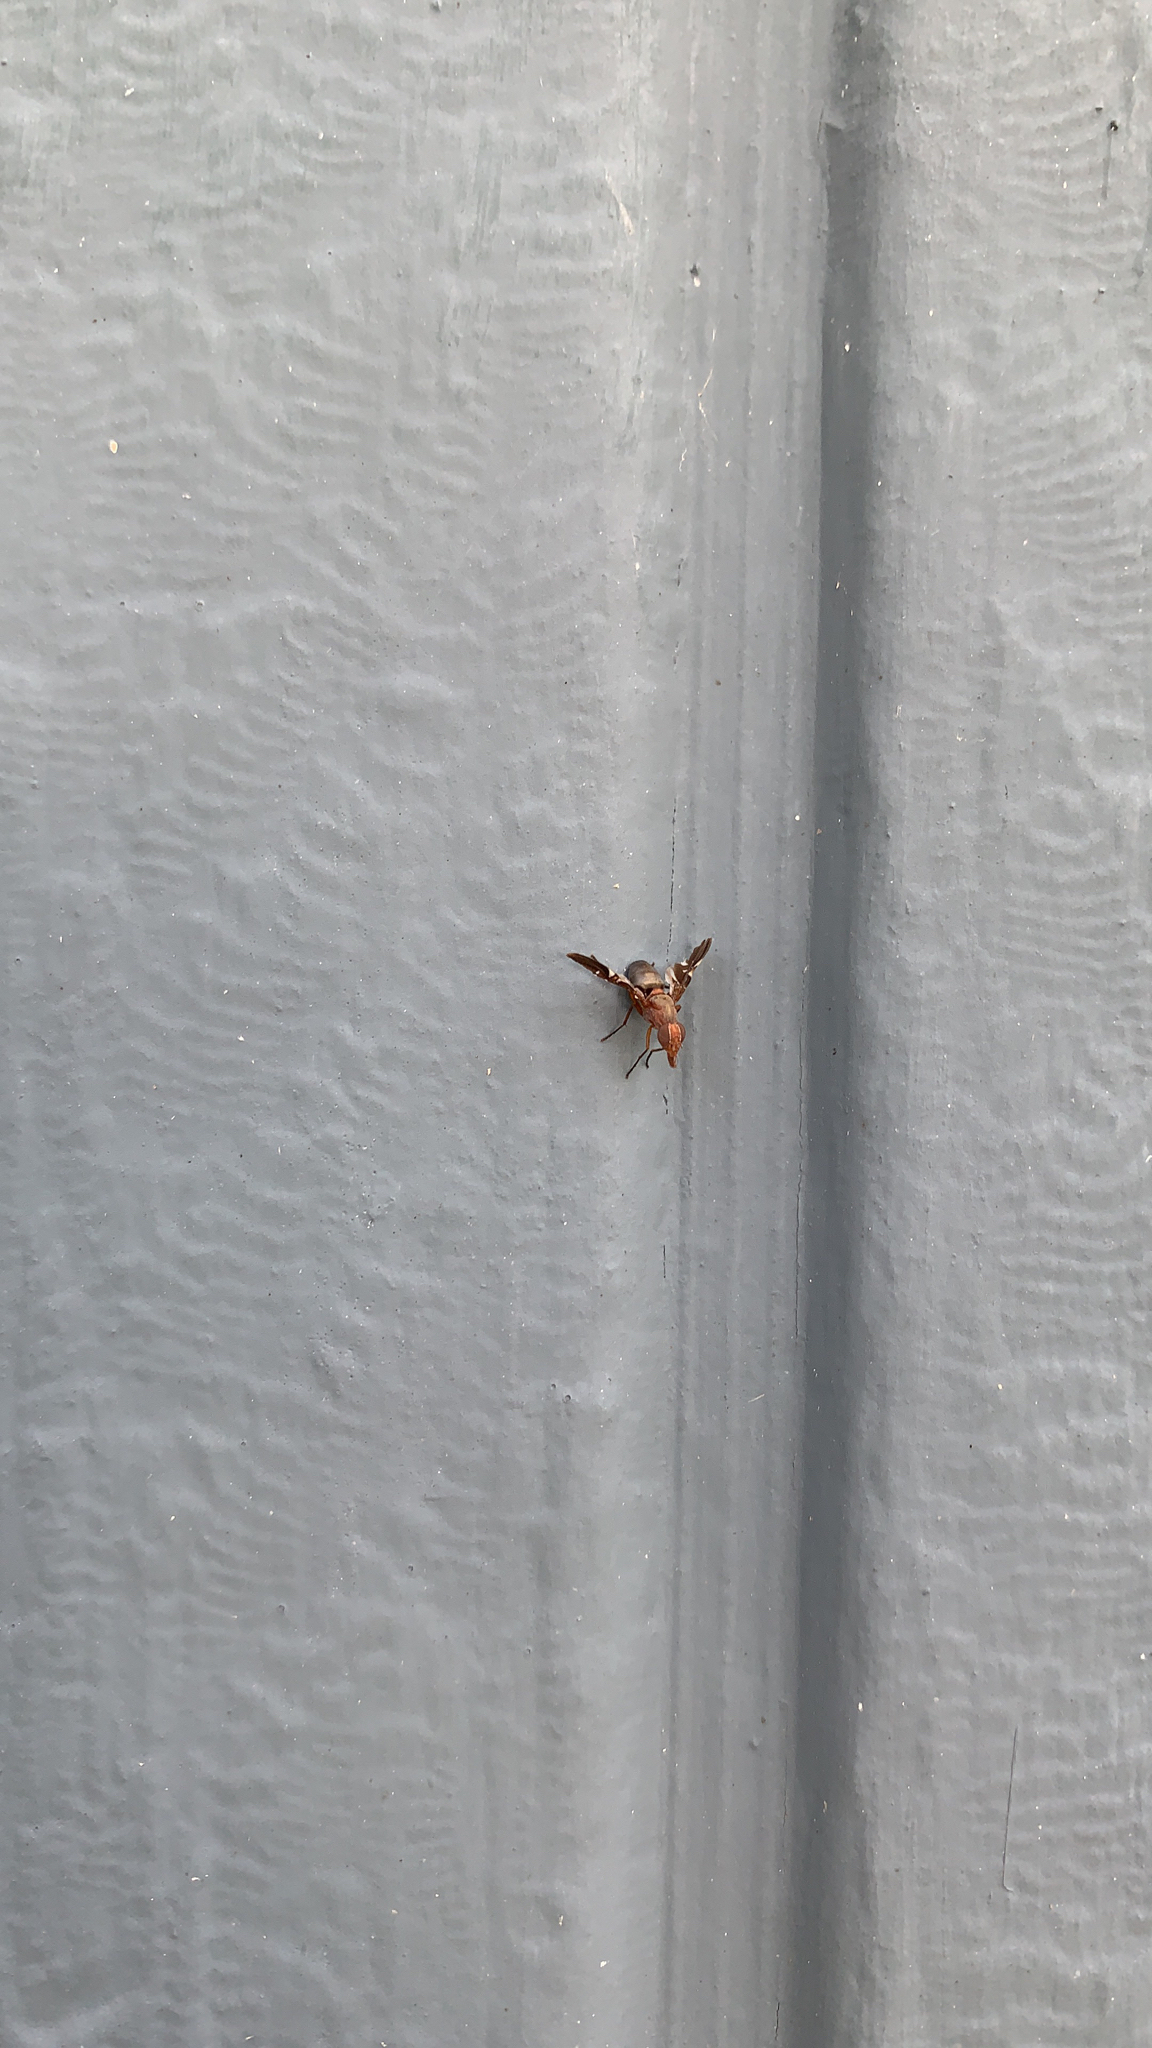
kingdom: Animalia
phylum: Arthropoda
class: Insecta
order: Diptera
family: Ulidiidae
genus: Delphinia
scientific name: Delphinia picta
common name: Common picture-winged fly
